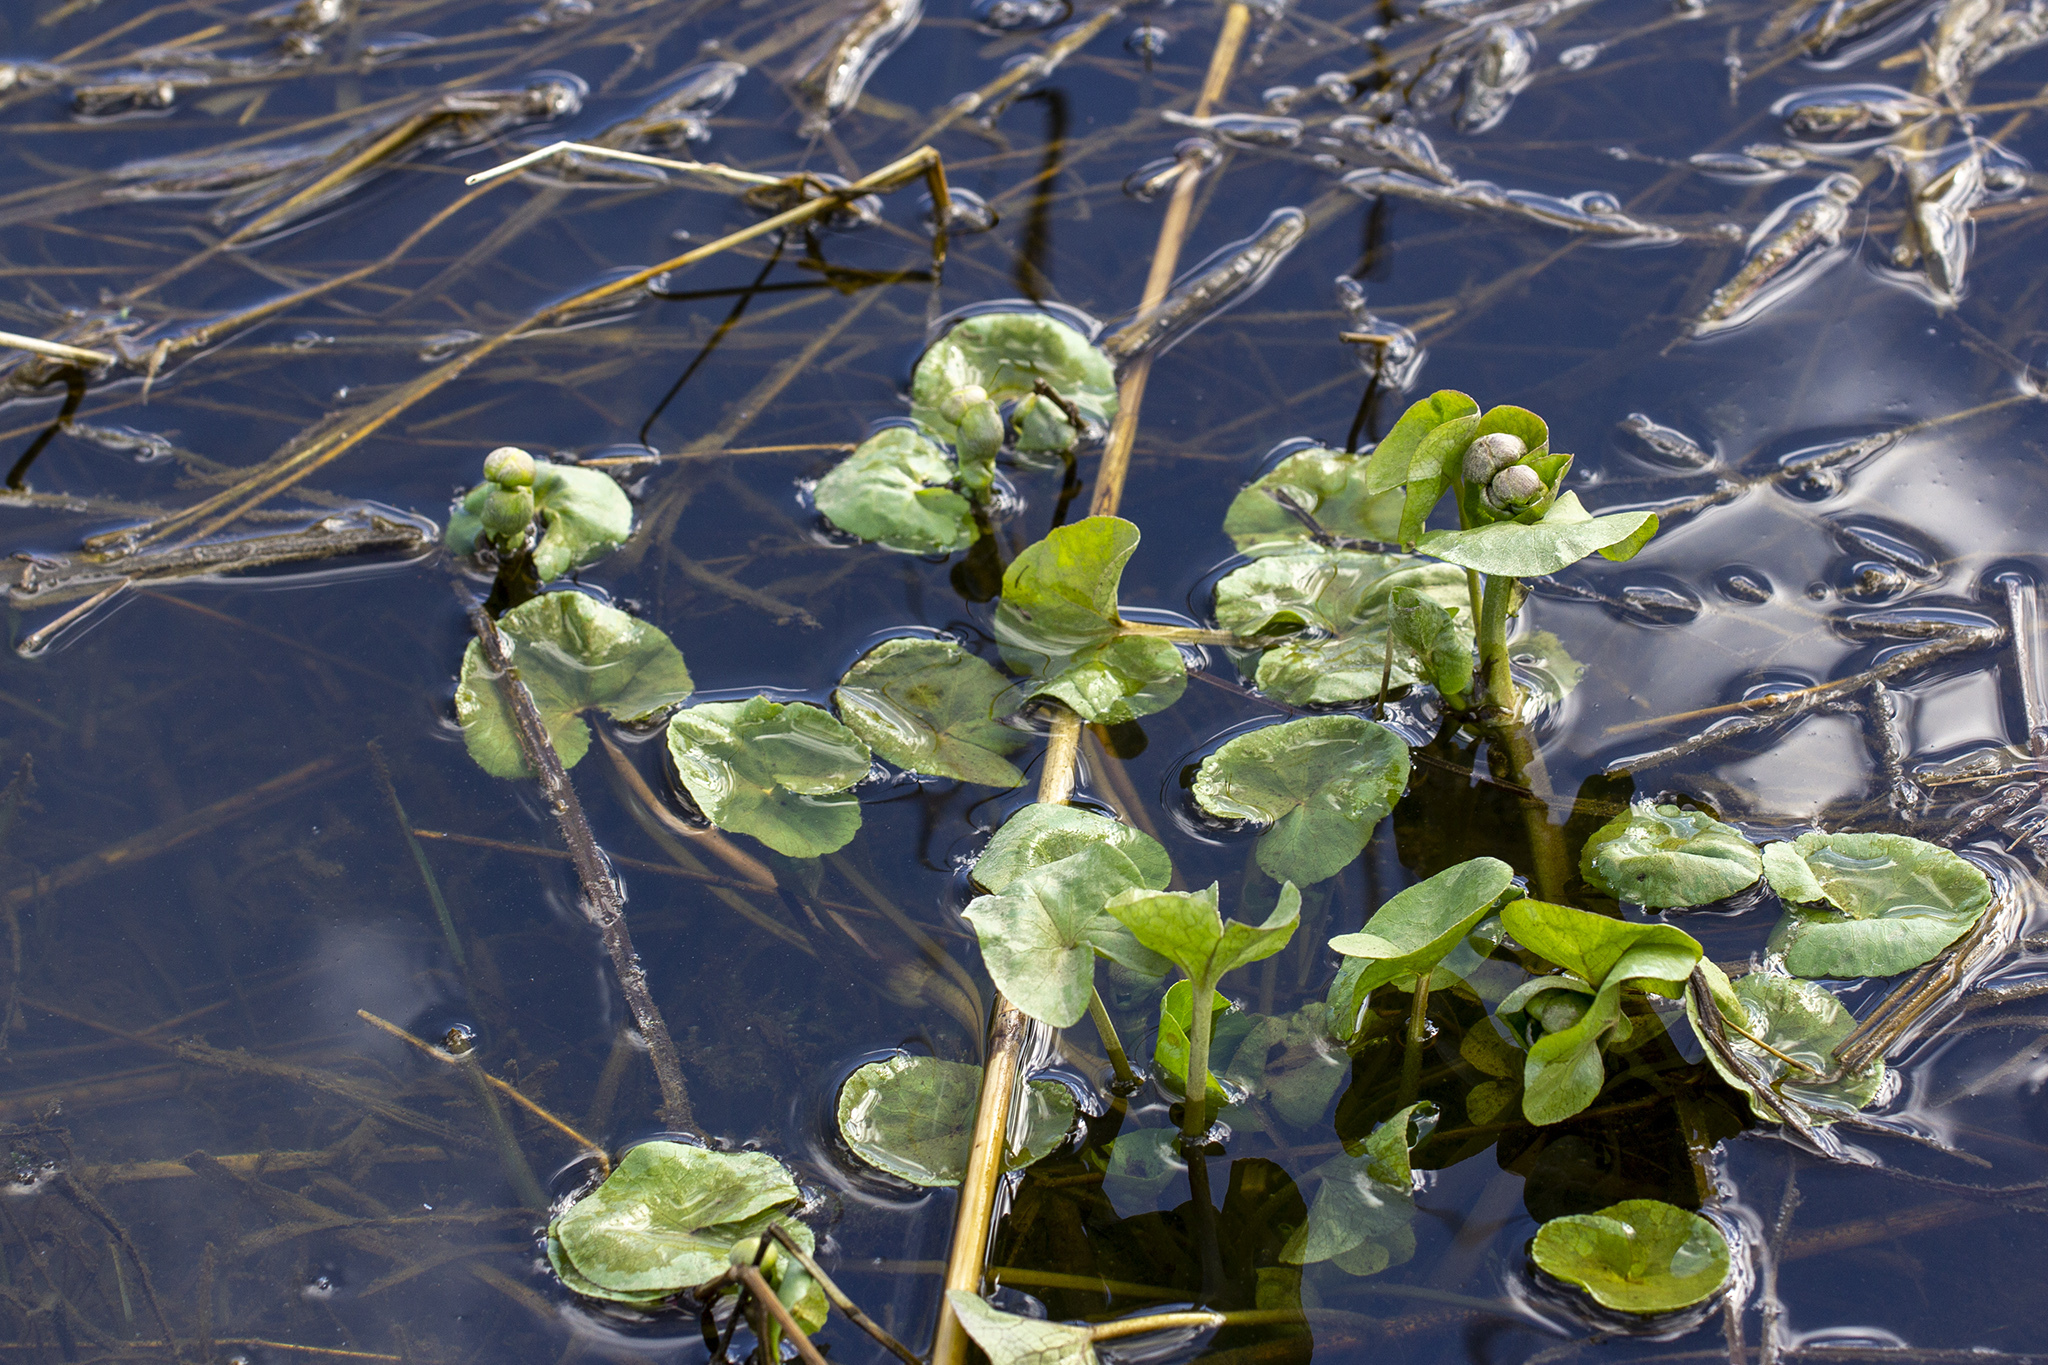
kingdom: Plantae
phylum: Tracheophyta
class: Magnoliopsida
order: Ranunculales
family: Ranunculaceae
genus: Caltha
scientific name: Caltha palustris
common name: Marsh marigold
